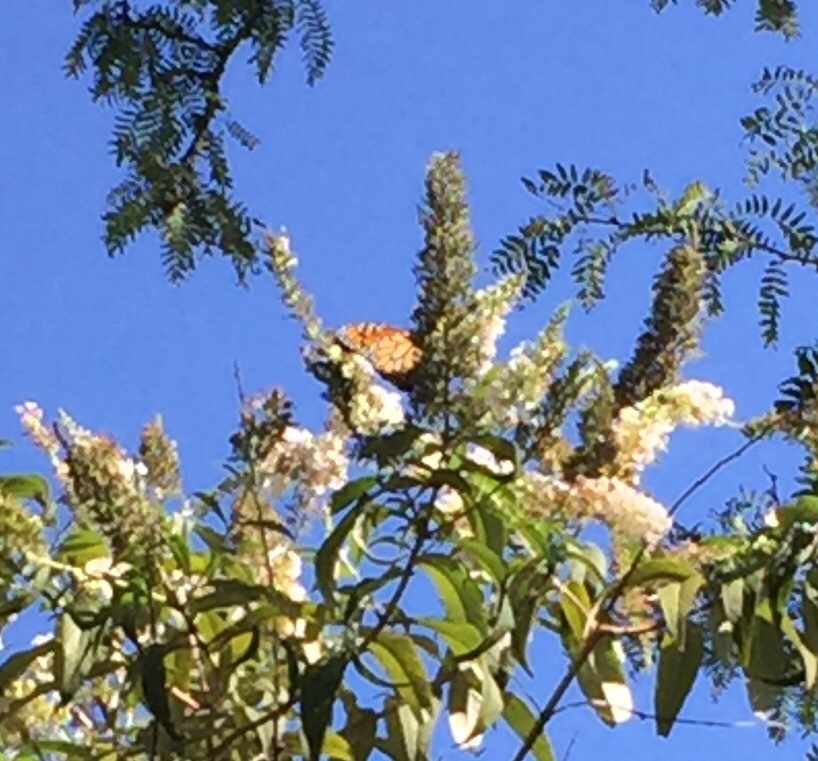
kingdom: Animalia
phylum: Arthropoda
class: Insecta
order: Lepidoptera
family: Nymphalidae
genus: Danaus
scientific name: Danaus plexippus
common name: Monarch
